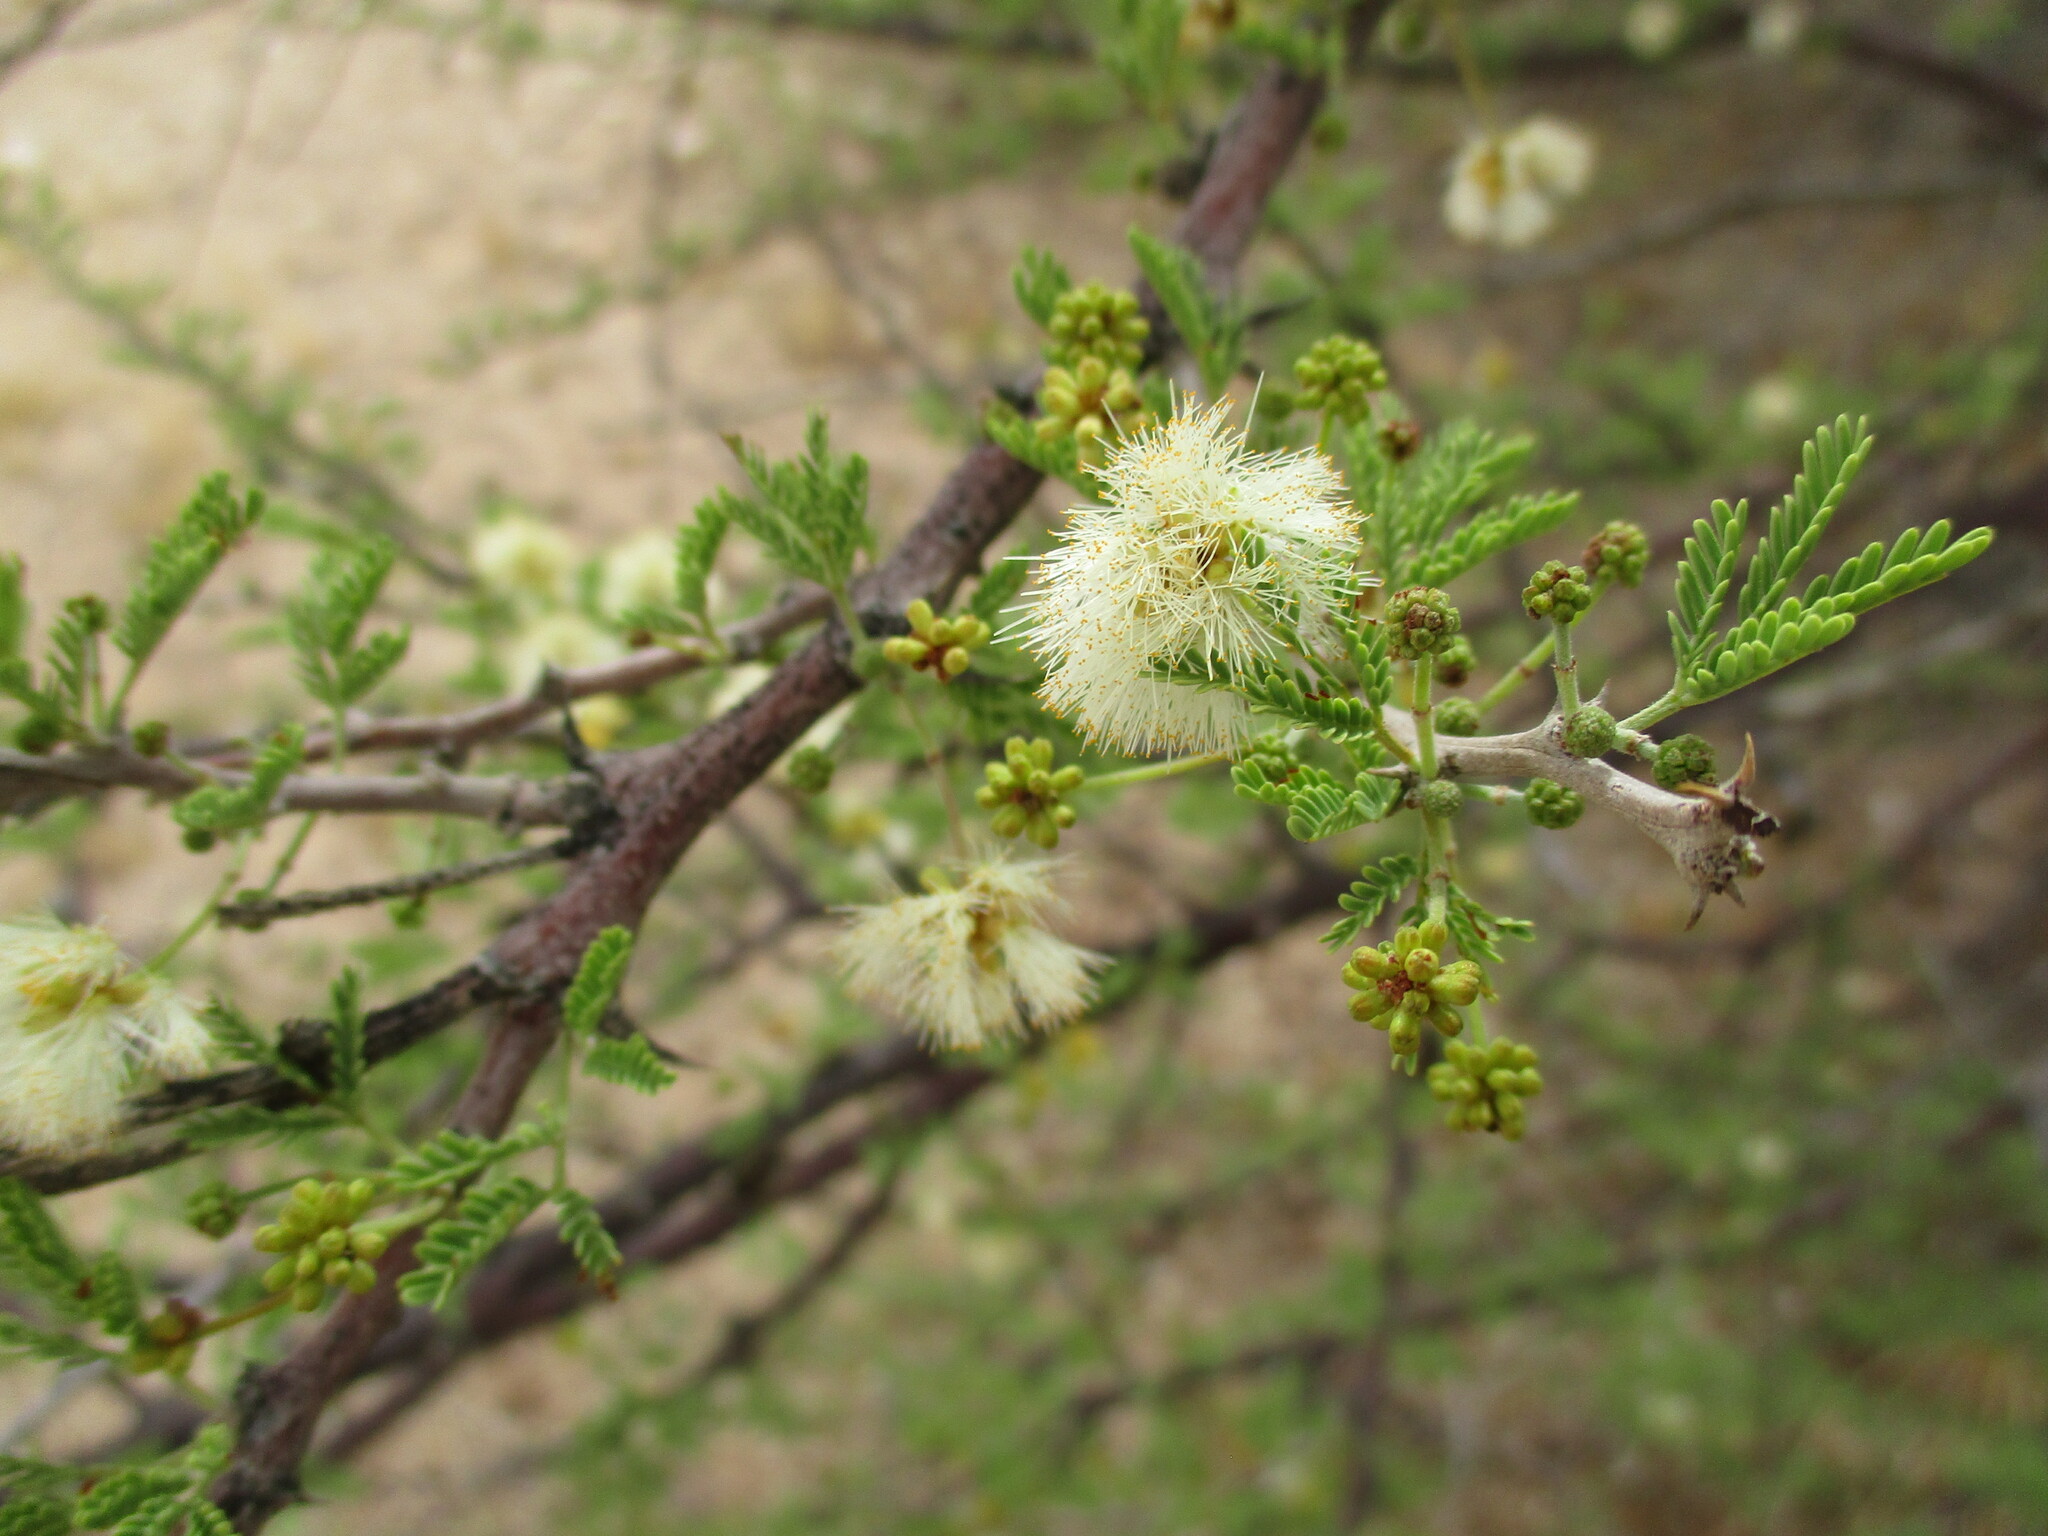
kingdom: Plantae
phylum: Tracheophyta
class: Magnoliopsida
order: Fabales
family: Fabaceae
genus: Vachellia
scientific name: Vachellia reficiens
